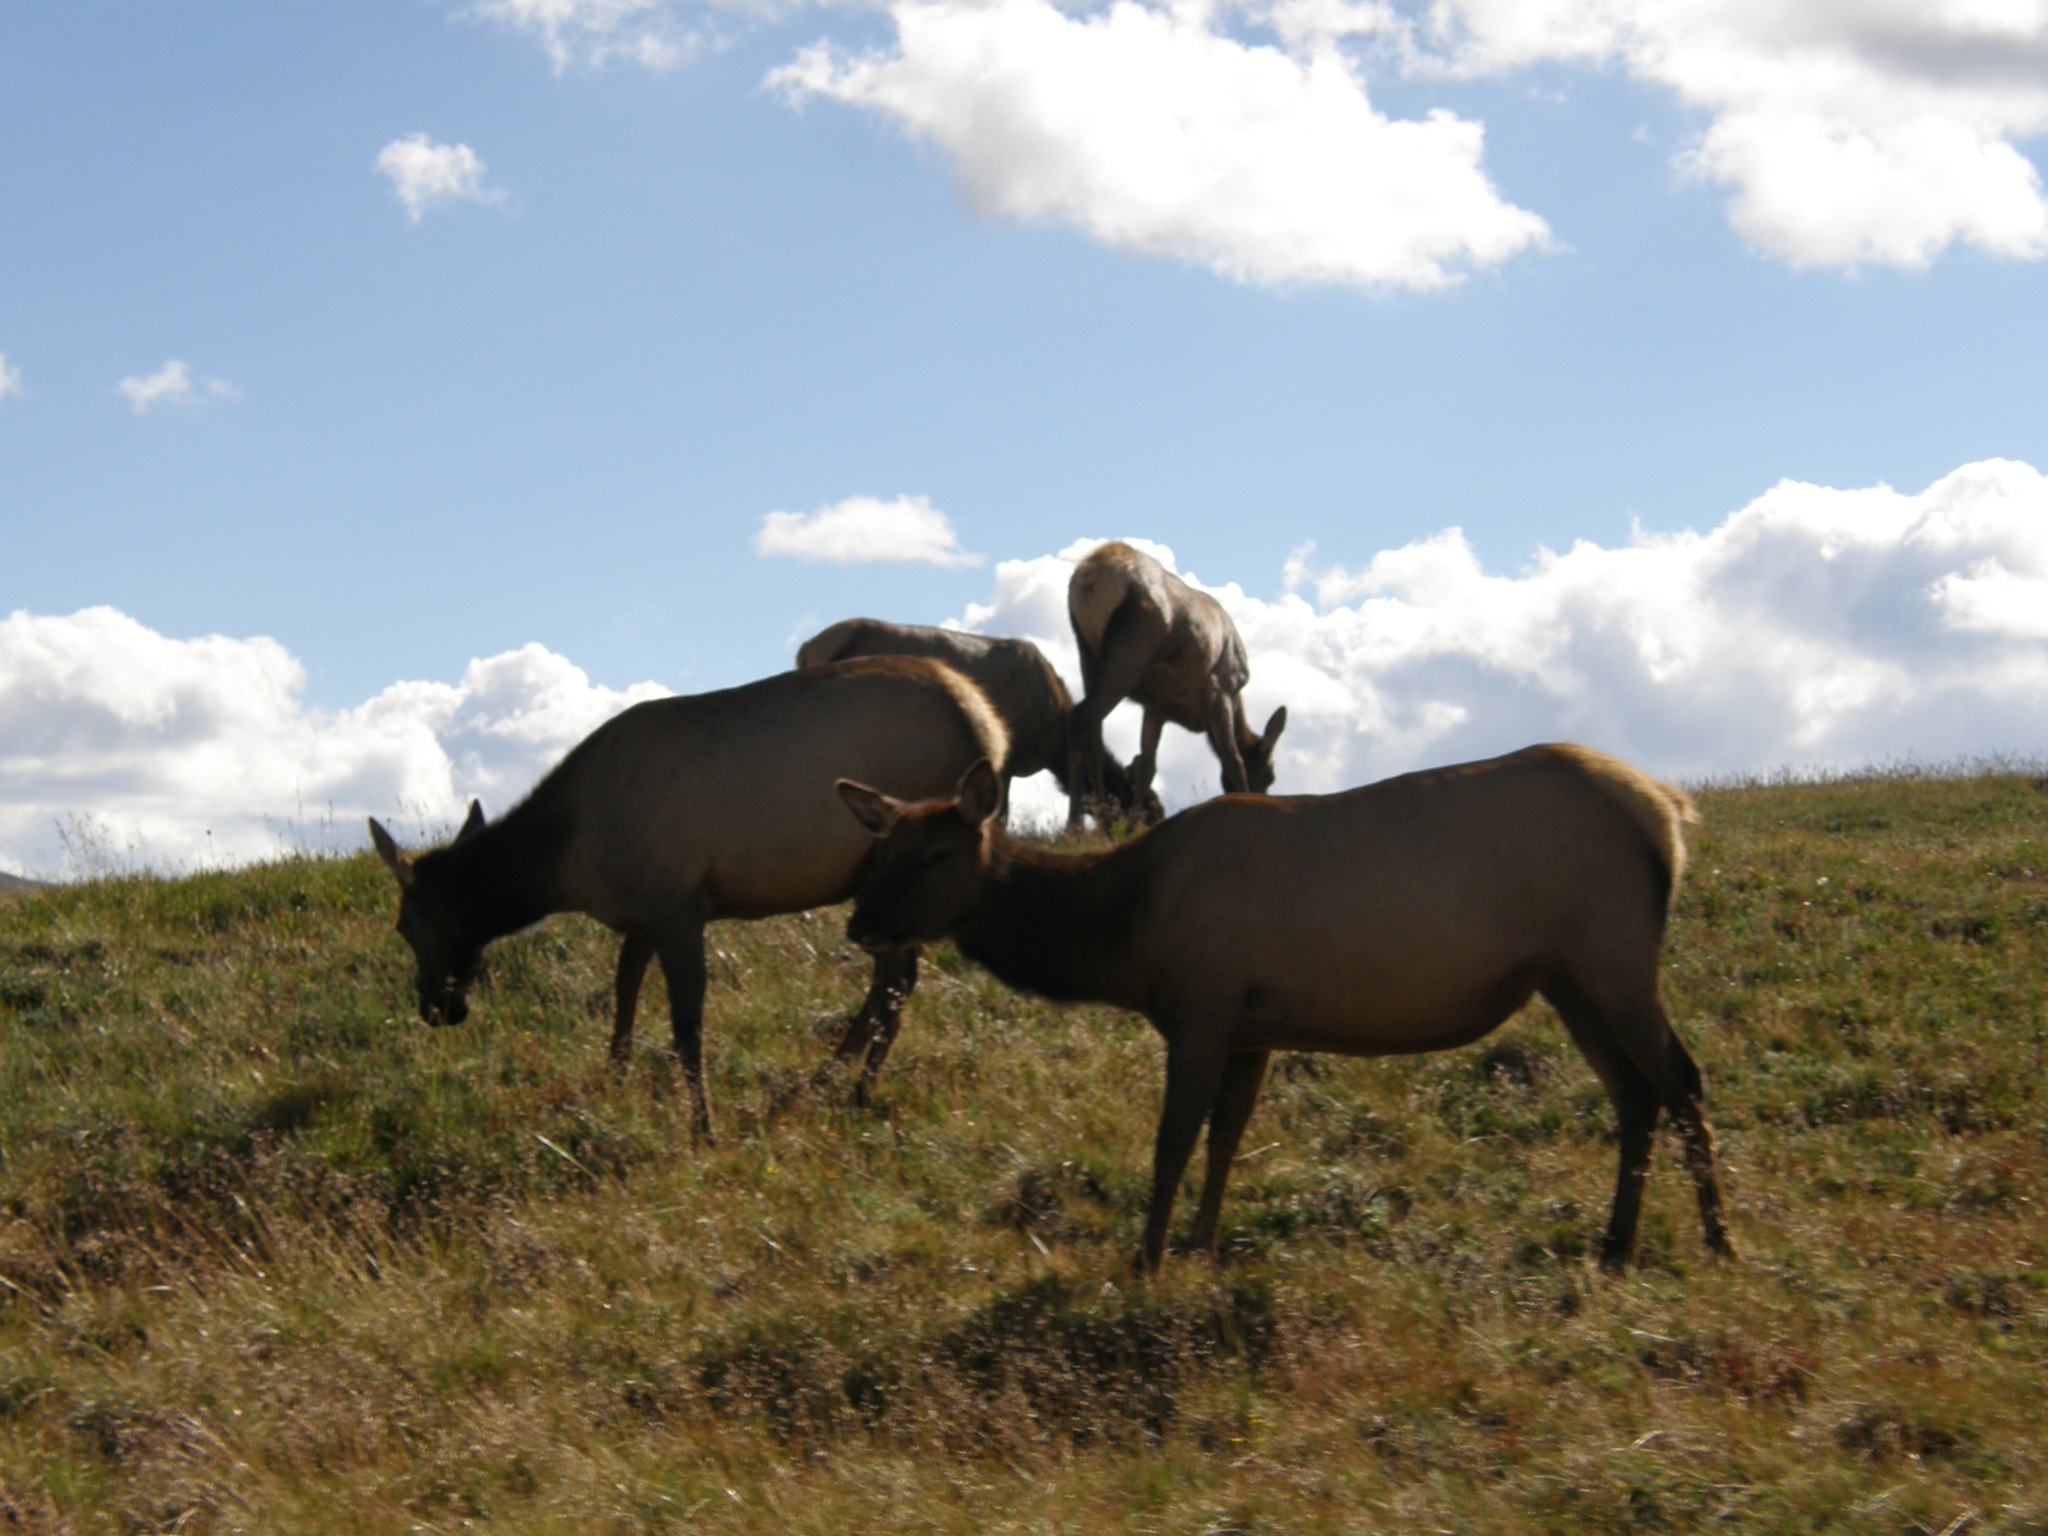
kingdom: Animalia
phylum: Chordata
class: Mammalia
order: Artiodactyla
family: Cervidae
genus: Cervus
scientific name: Cervus elaphus
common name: Red deer
